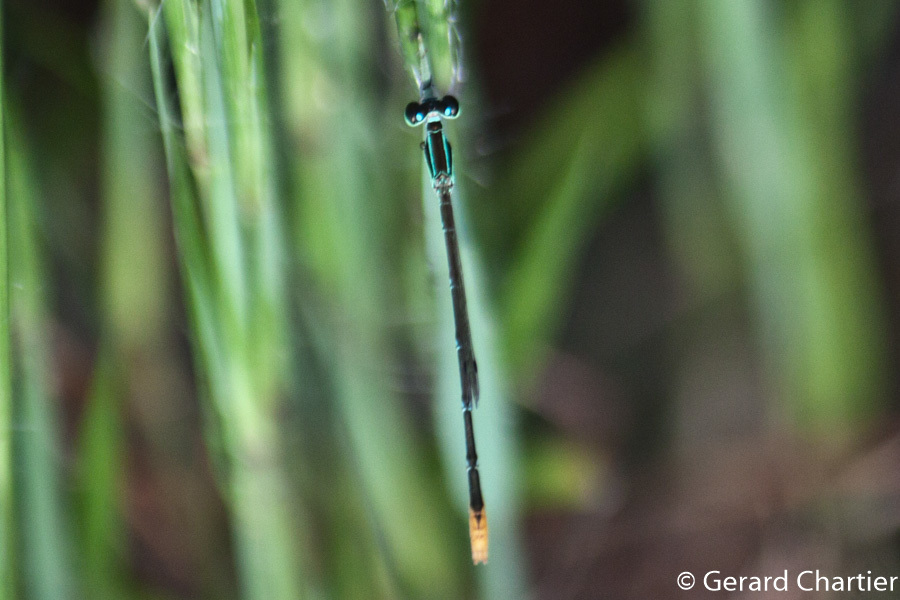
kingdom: Animalia
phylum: Arthropoda
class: Insecta
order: Odonata
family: Coenagrionidae
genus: Agriocnemis
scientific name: Agriocnemis pygmaea
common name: Pygmy wisp
